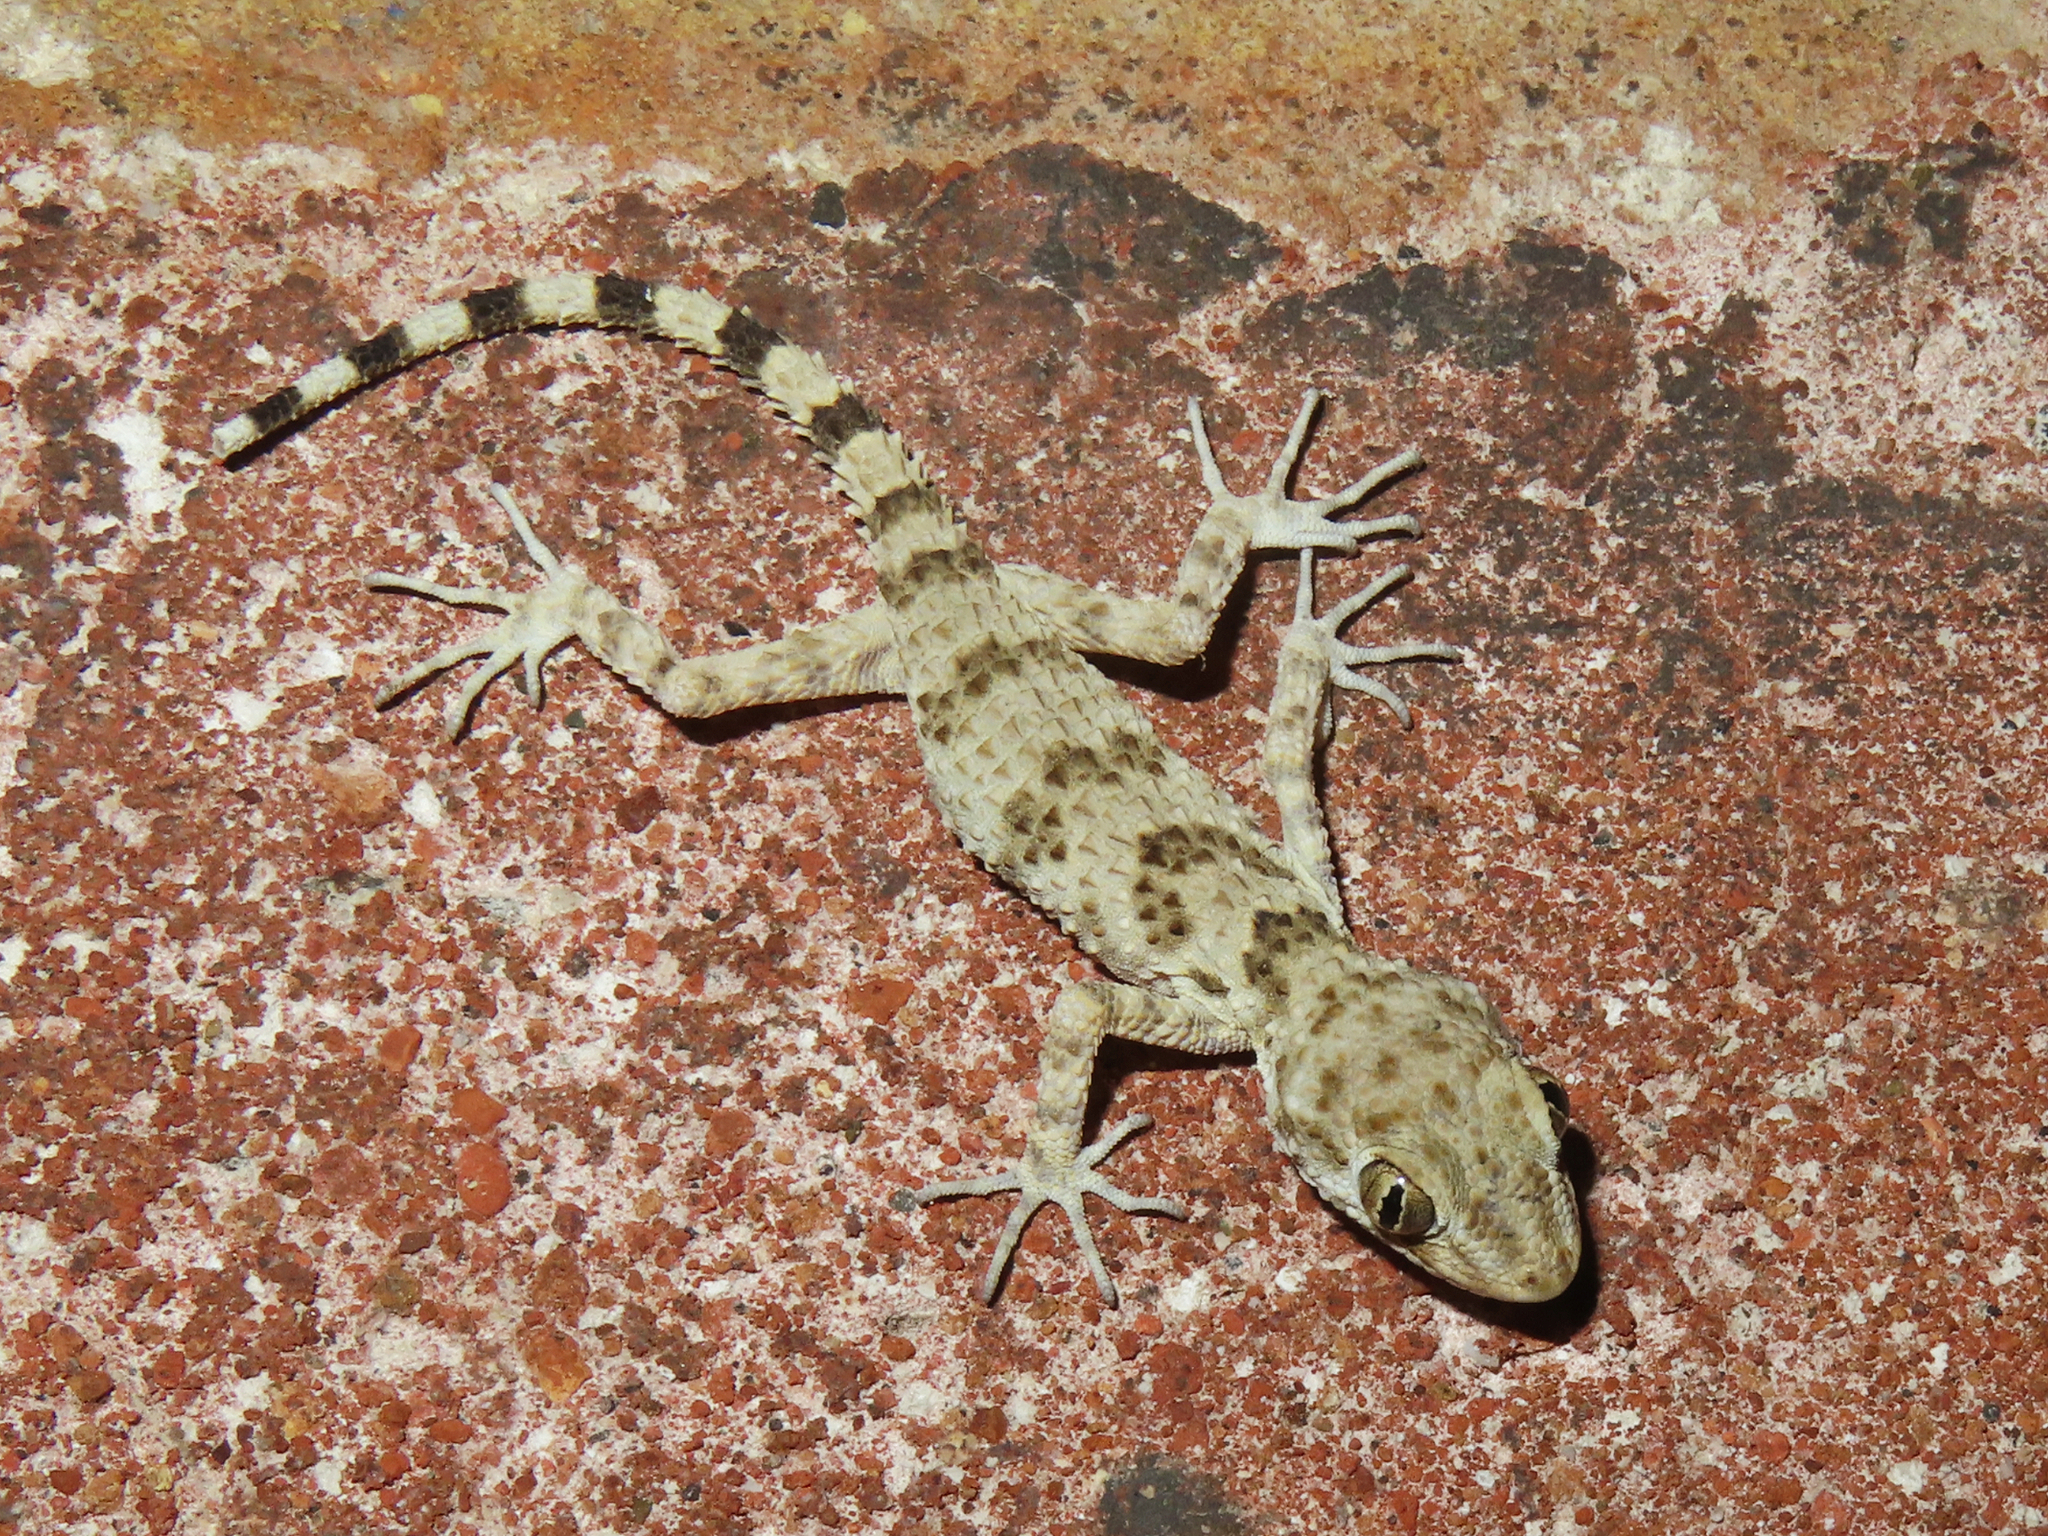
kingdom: Animalia
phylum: Chordata
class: Squamata
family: Gekkonidae
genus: Tenuidactylus
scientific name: Tenuidactylus caspius
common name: Caspian bent-toed gecko
